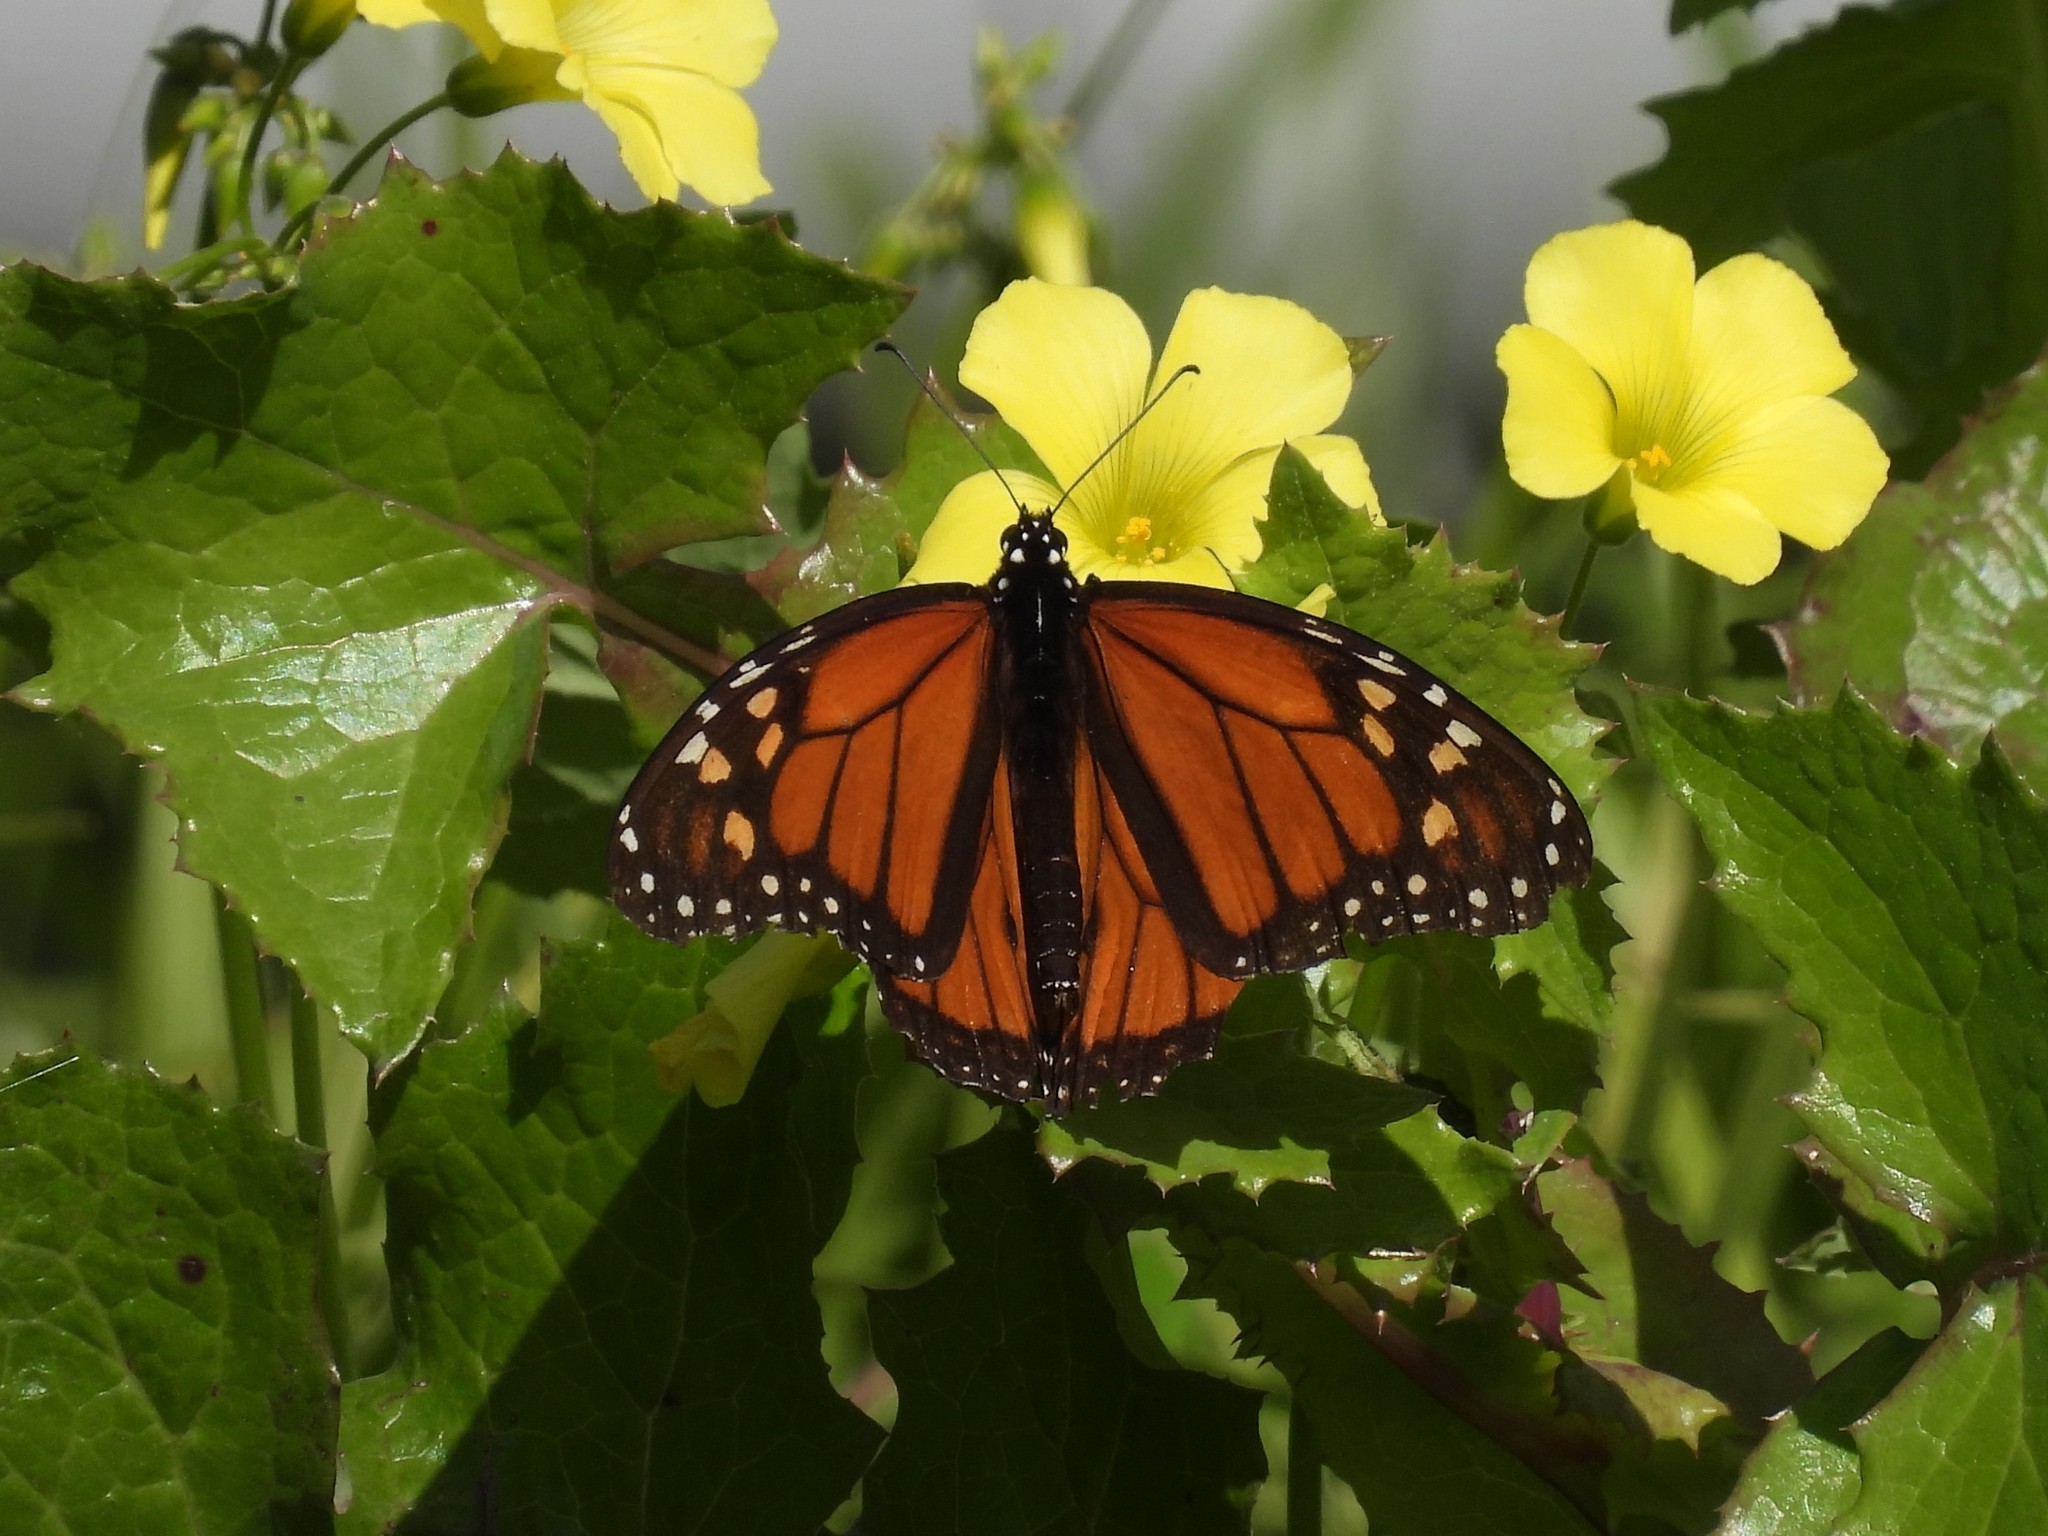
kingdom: Animalia
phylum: Arthropoda
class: Insecta
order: Lepidoptera
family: Nymphalidae
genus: Danaus
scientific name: Danaus plexippus
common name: Monarch
